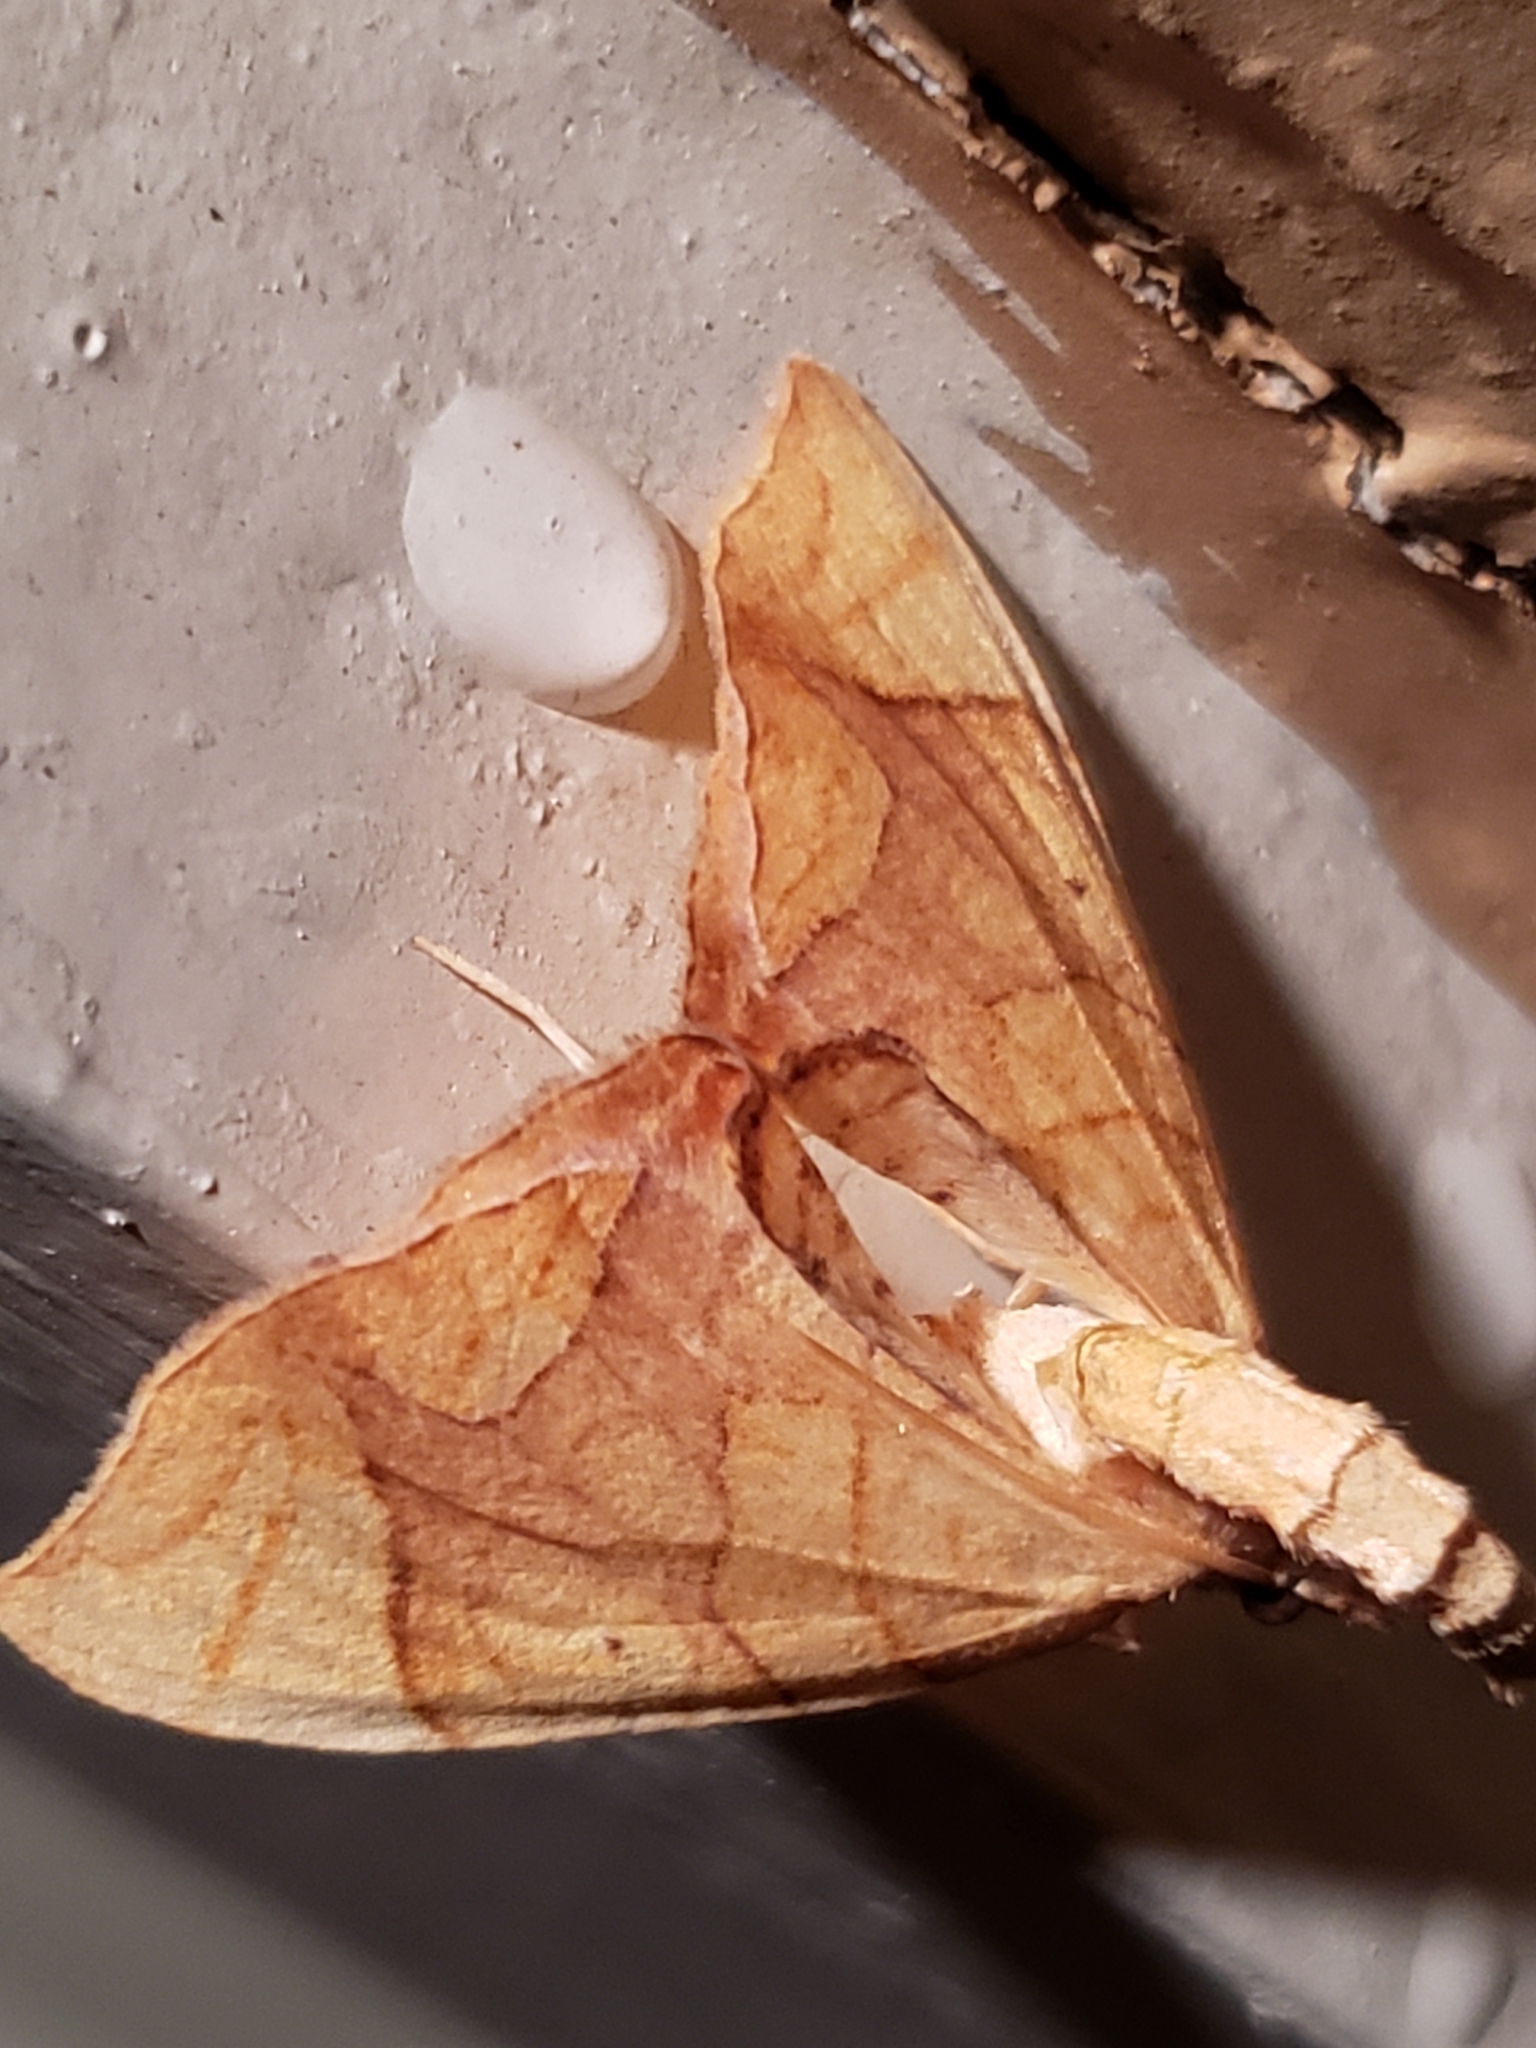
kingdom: Animalia
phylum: Arthropoda
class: Insecta
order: Lepidoptera
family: Geometridae
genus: Eulithis
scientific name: Eulithis diversilineata
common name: Grapevine looper
